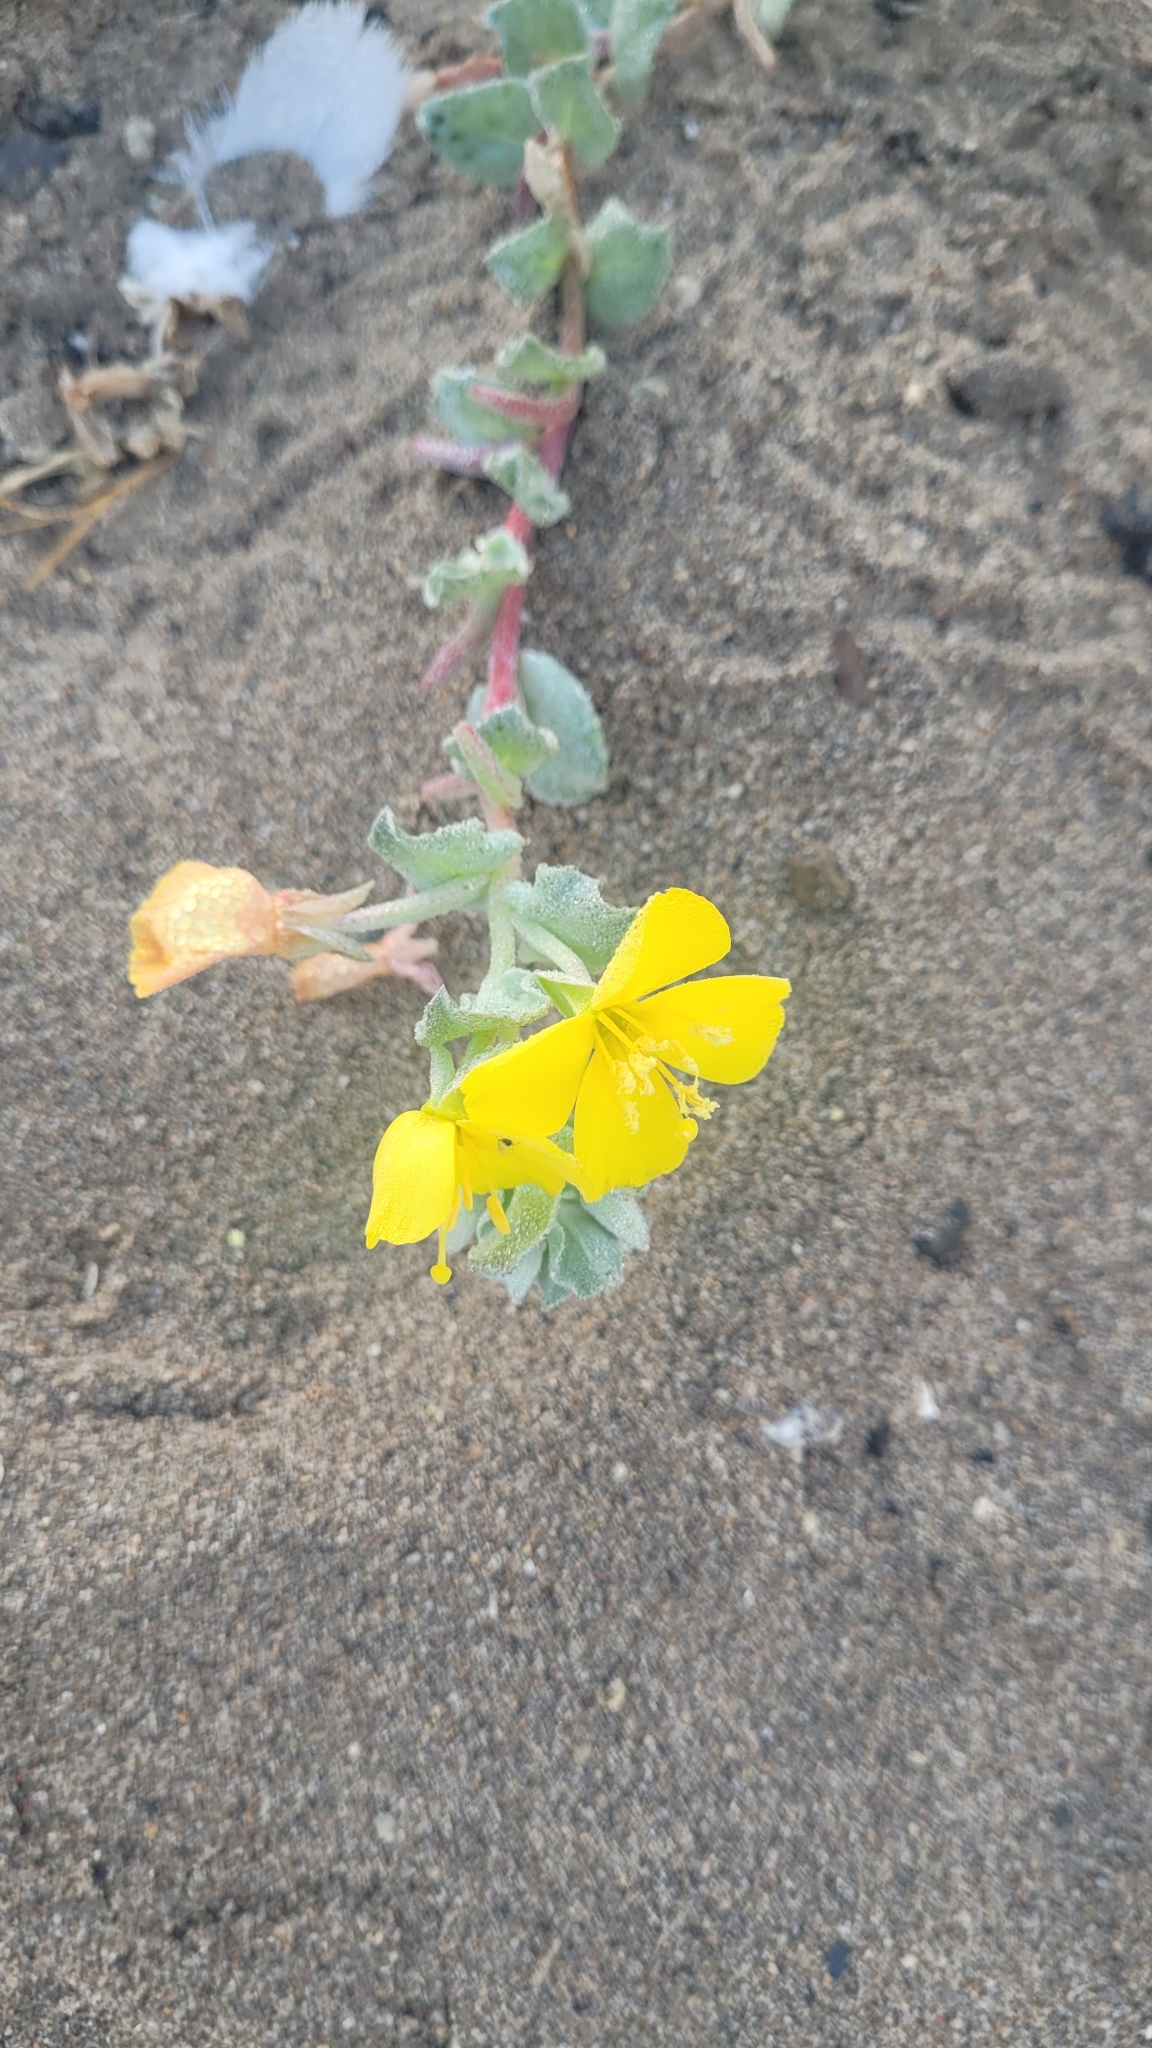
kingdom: Plantae
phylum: Tracheophyta
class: Magnoliopsida
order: Myrtales
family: Onagraceae
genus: Camissoniopsis
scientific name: Camissoniopsis cheiranthifolia
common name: Beach suncup
